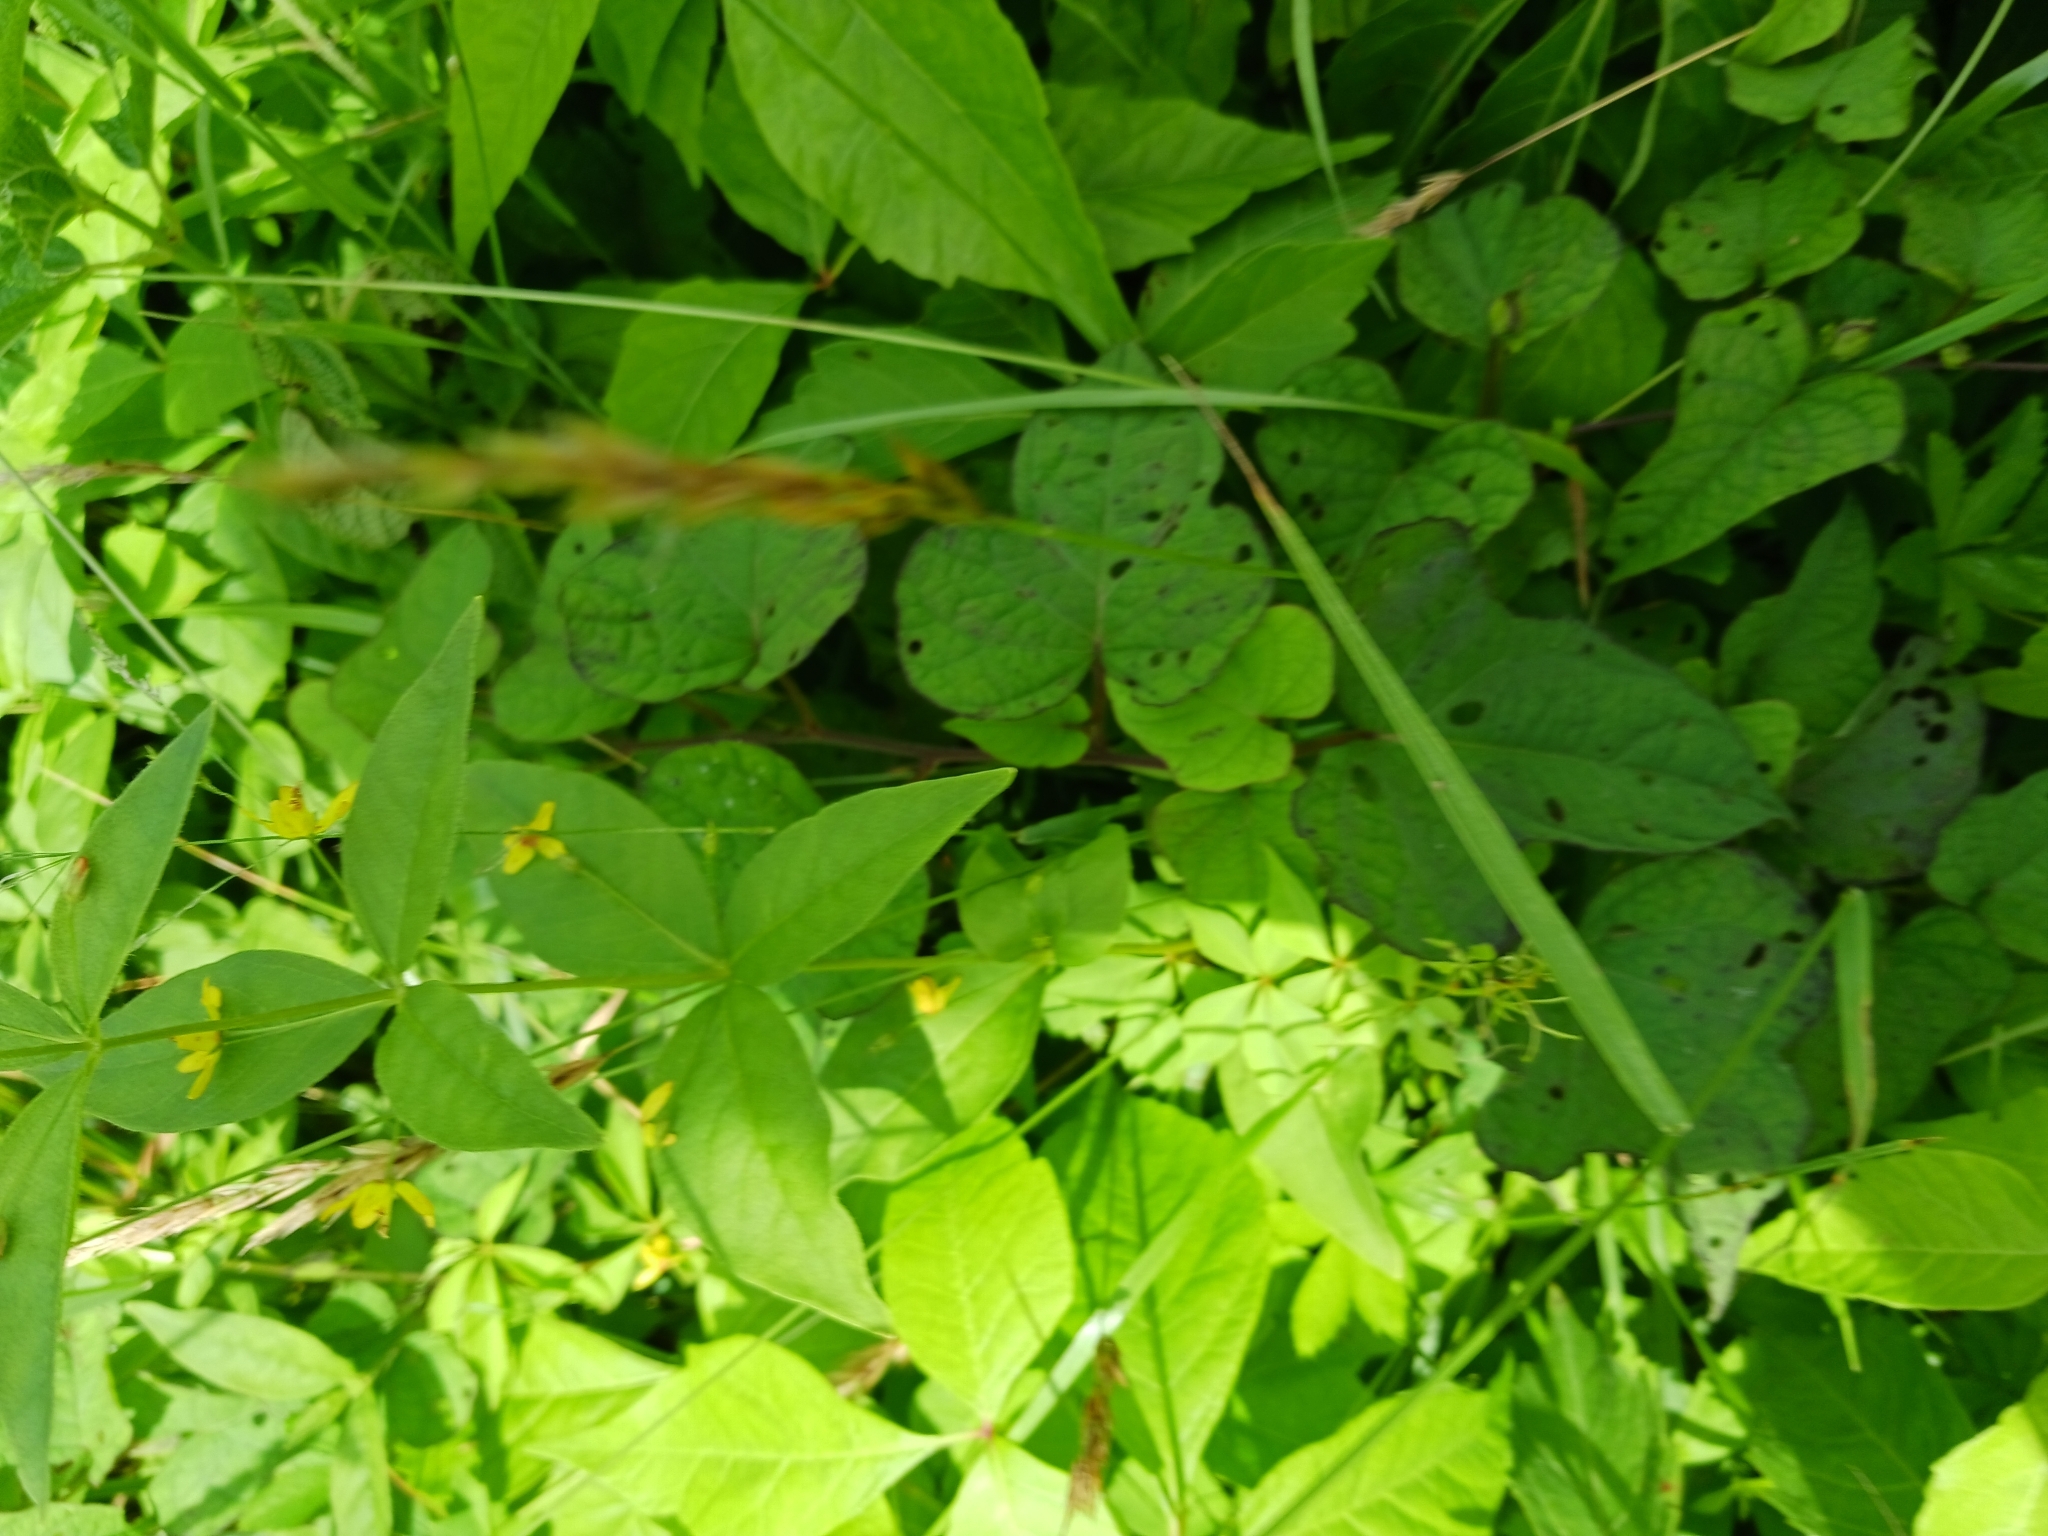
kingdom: Plantae
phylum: Tracheophyta
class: Magnoliopsida
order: Ericales
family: Primulaceae
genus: Lysimachia
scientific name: Lysimachia quadrifolia
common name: Whorled loosestrife
